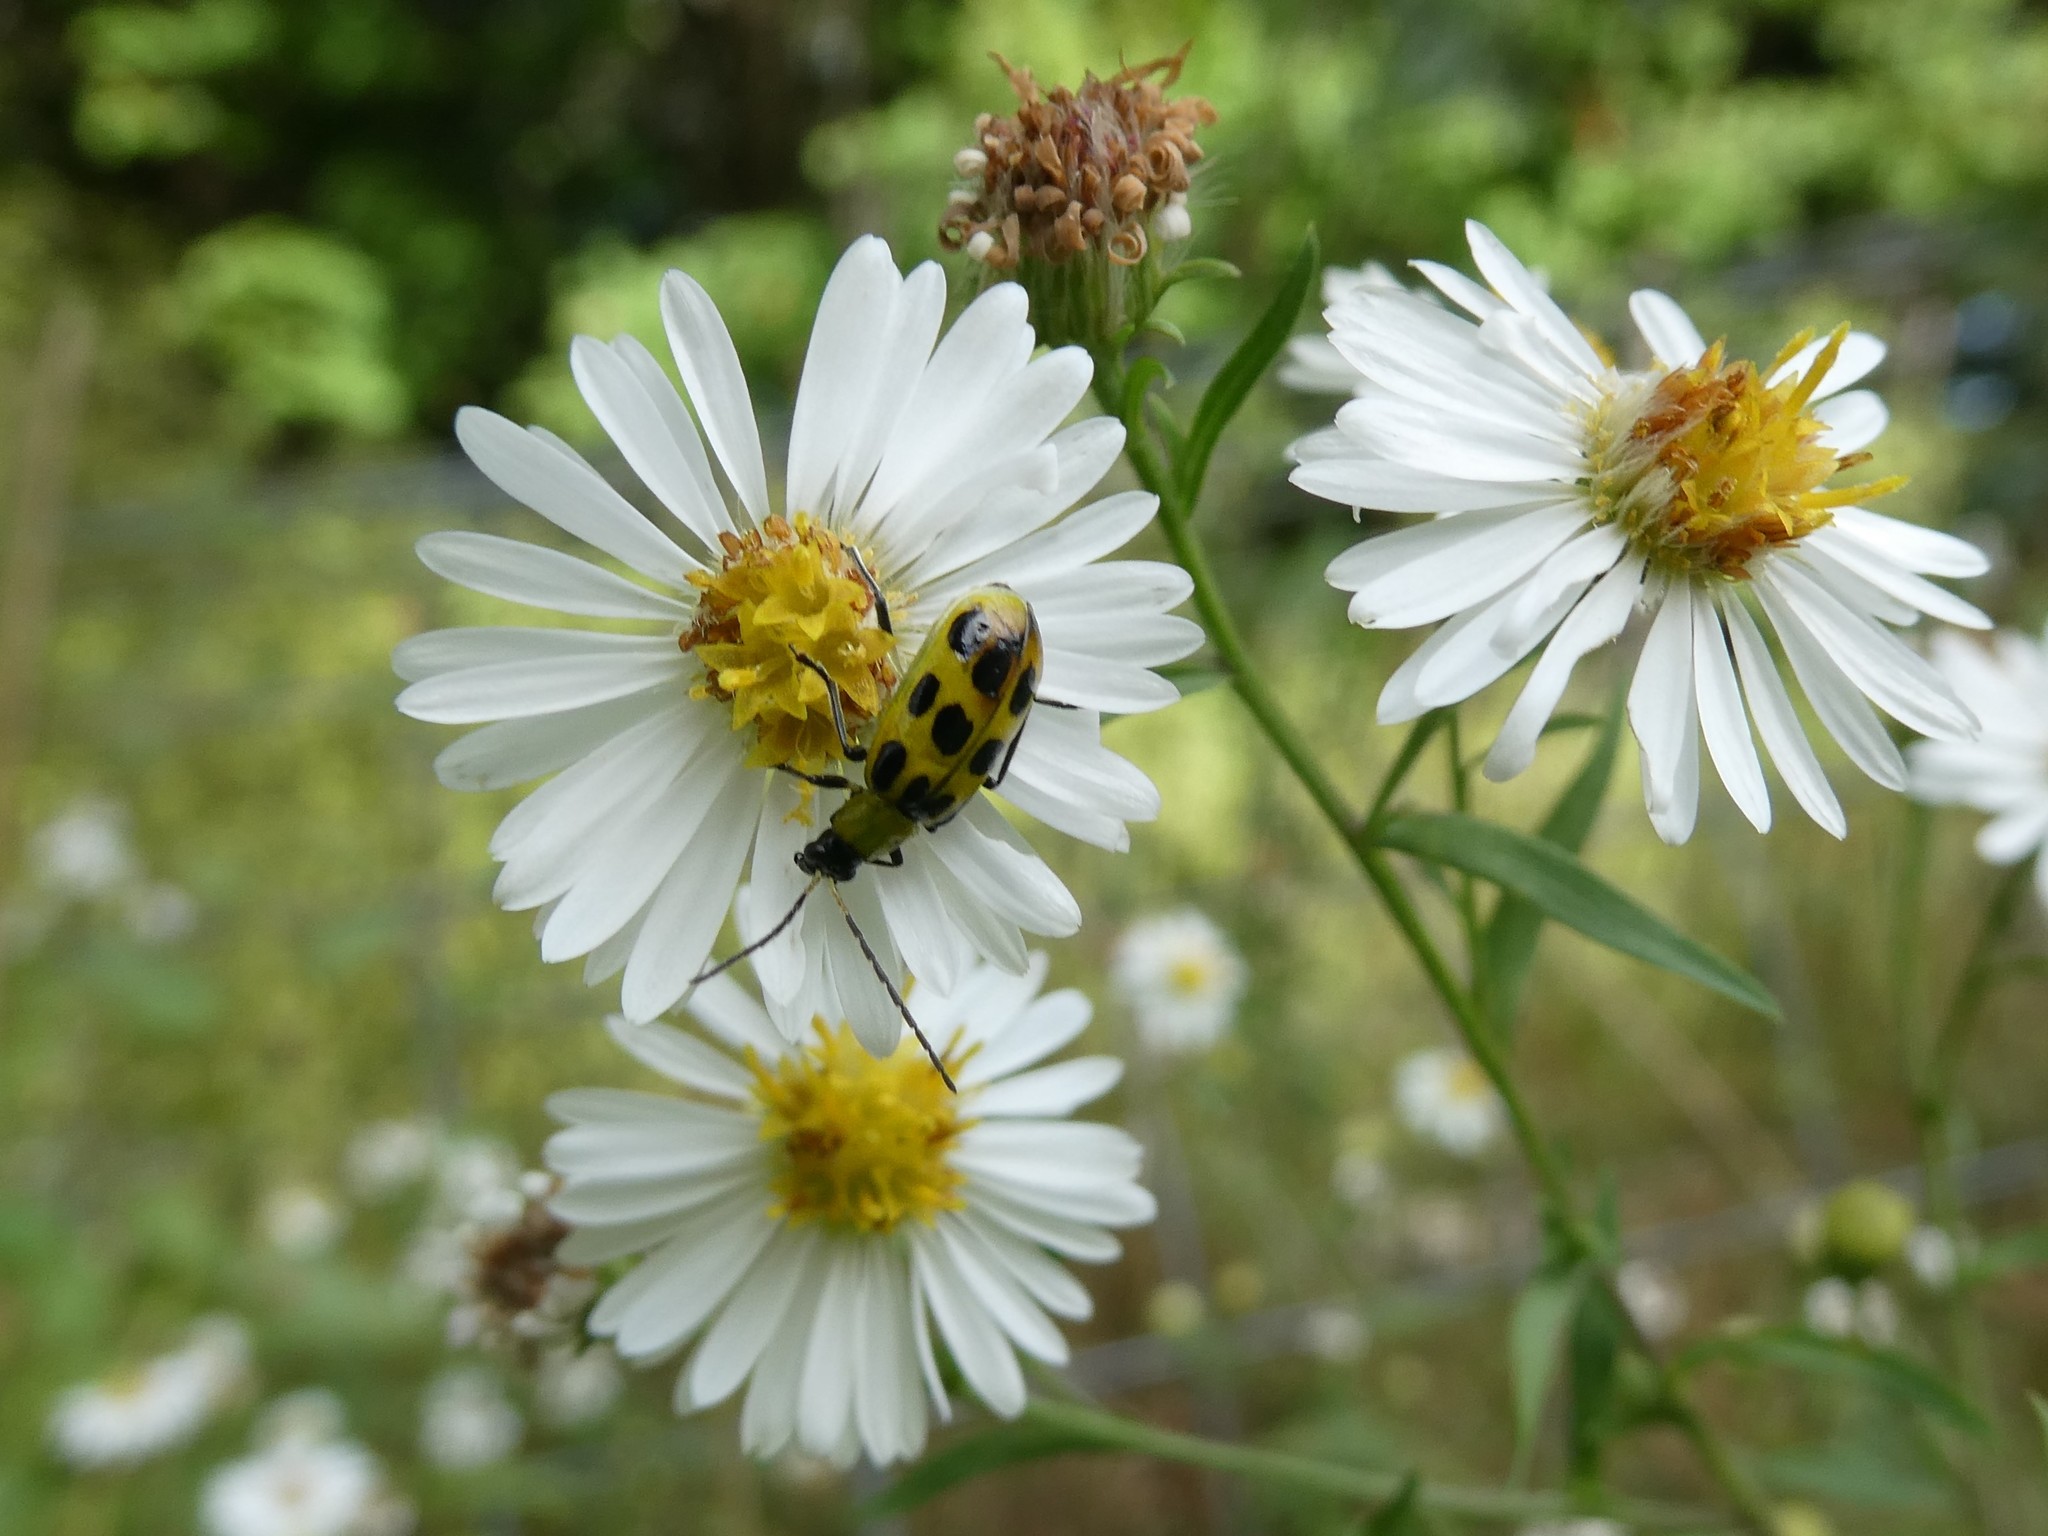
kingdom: Animalia
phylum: Arthropoda
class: Insecta
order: Coleoptera
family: Chrysomelidae
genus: Diabrotica
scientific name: Diabrotica undecimpunctata
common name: Spotted cucumber beetle
